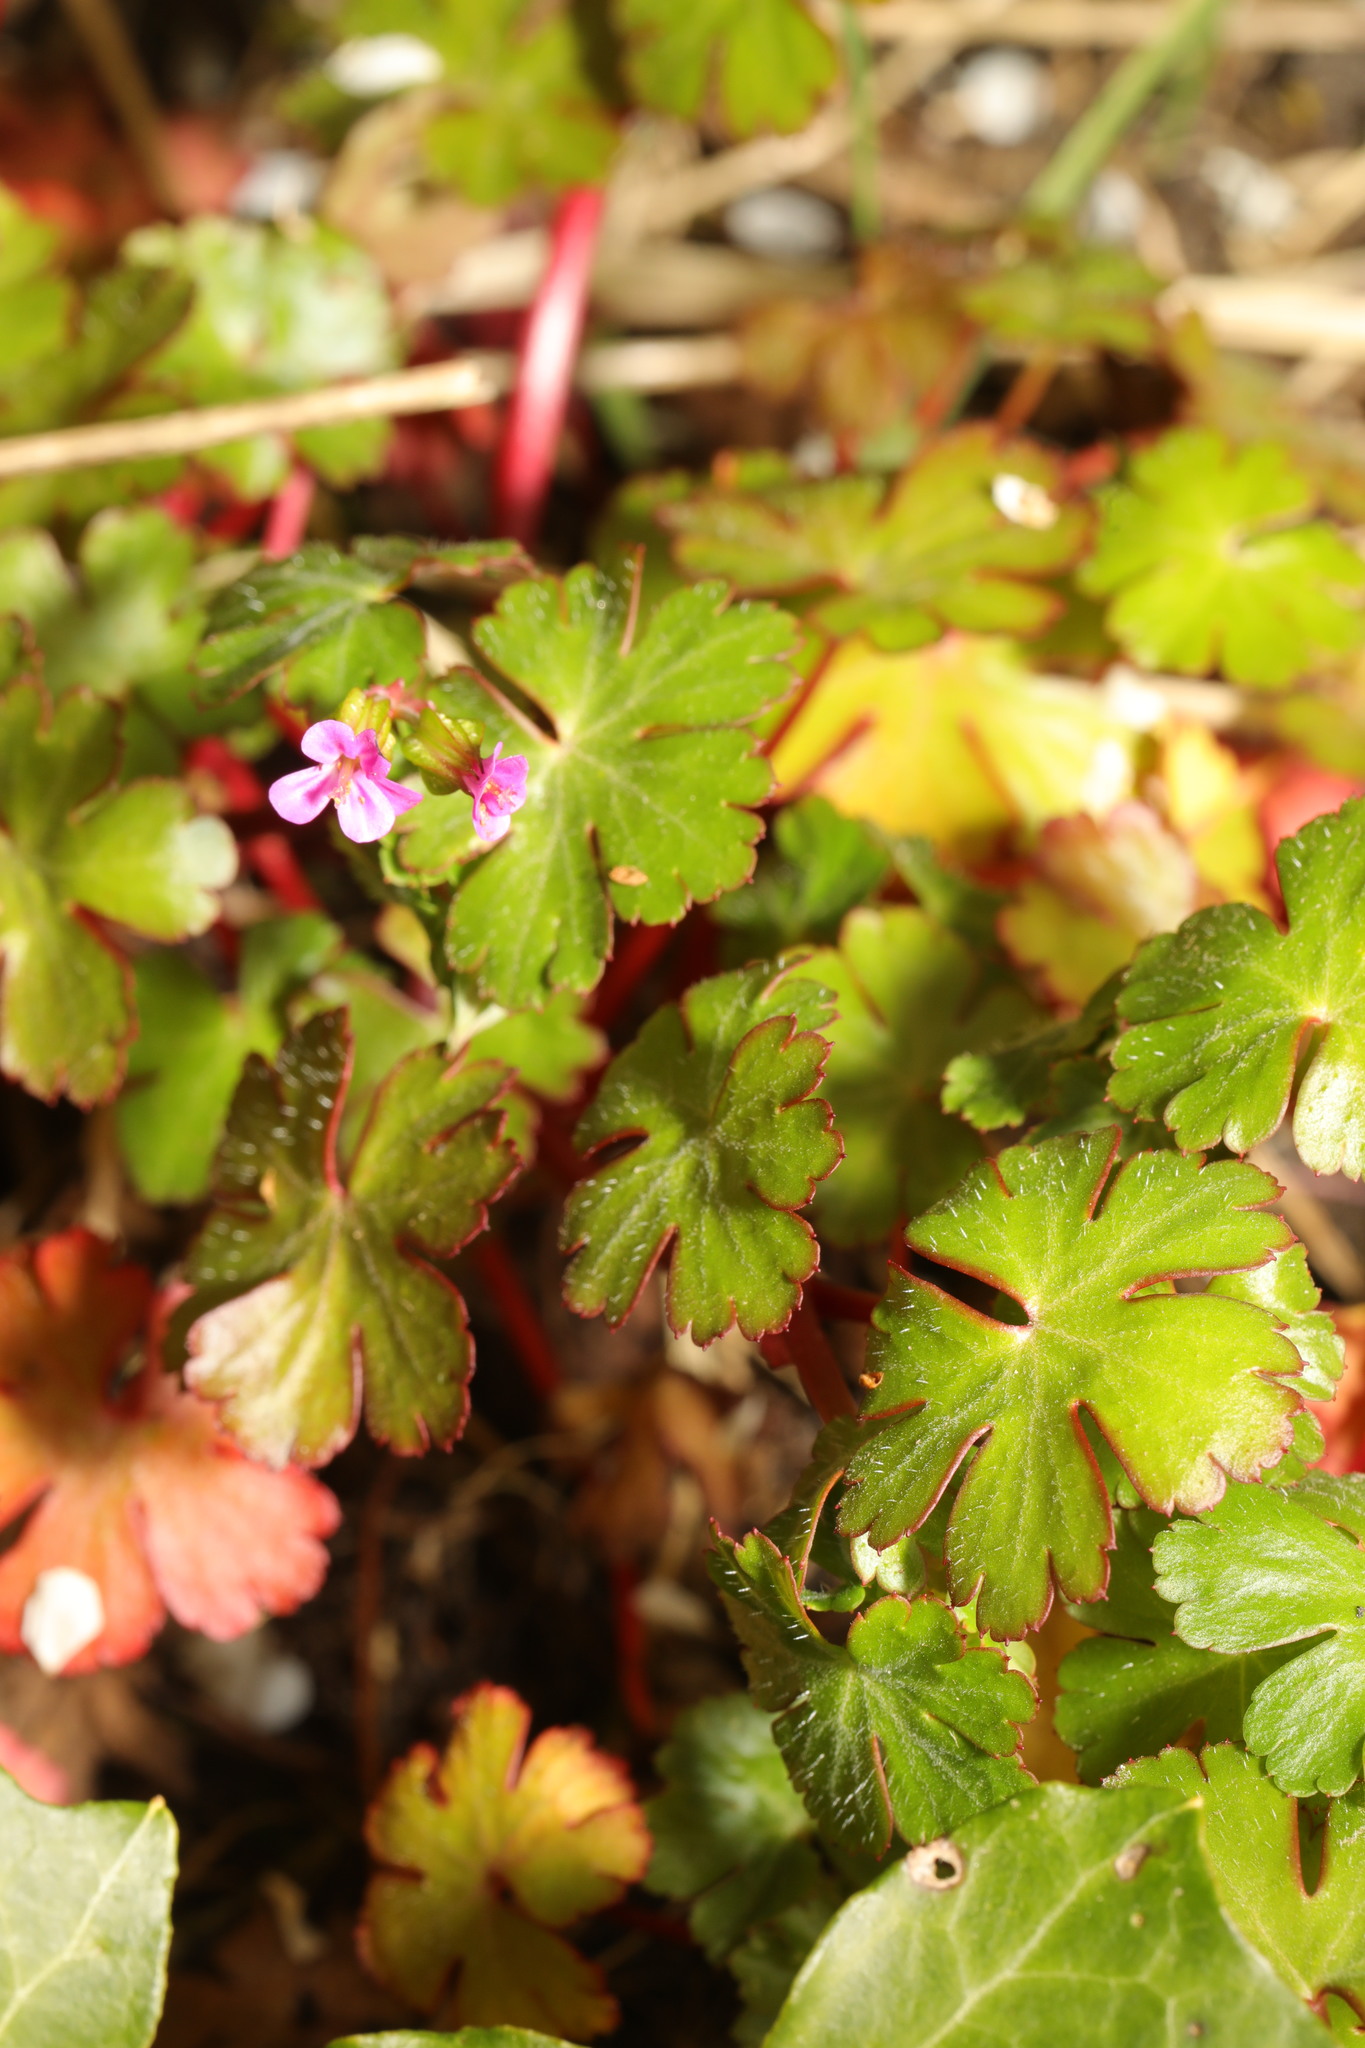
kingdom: Plantae
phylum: Tracheophyta
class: Magnoliopsida
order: Geraniales
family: Geraniaceae
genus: Geranium
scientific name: Geranium lucidum
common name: Shining crane's-bill
